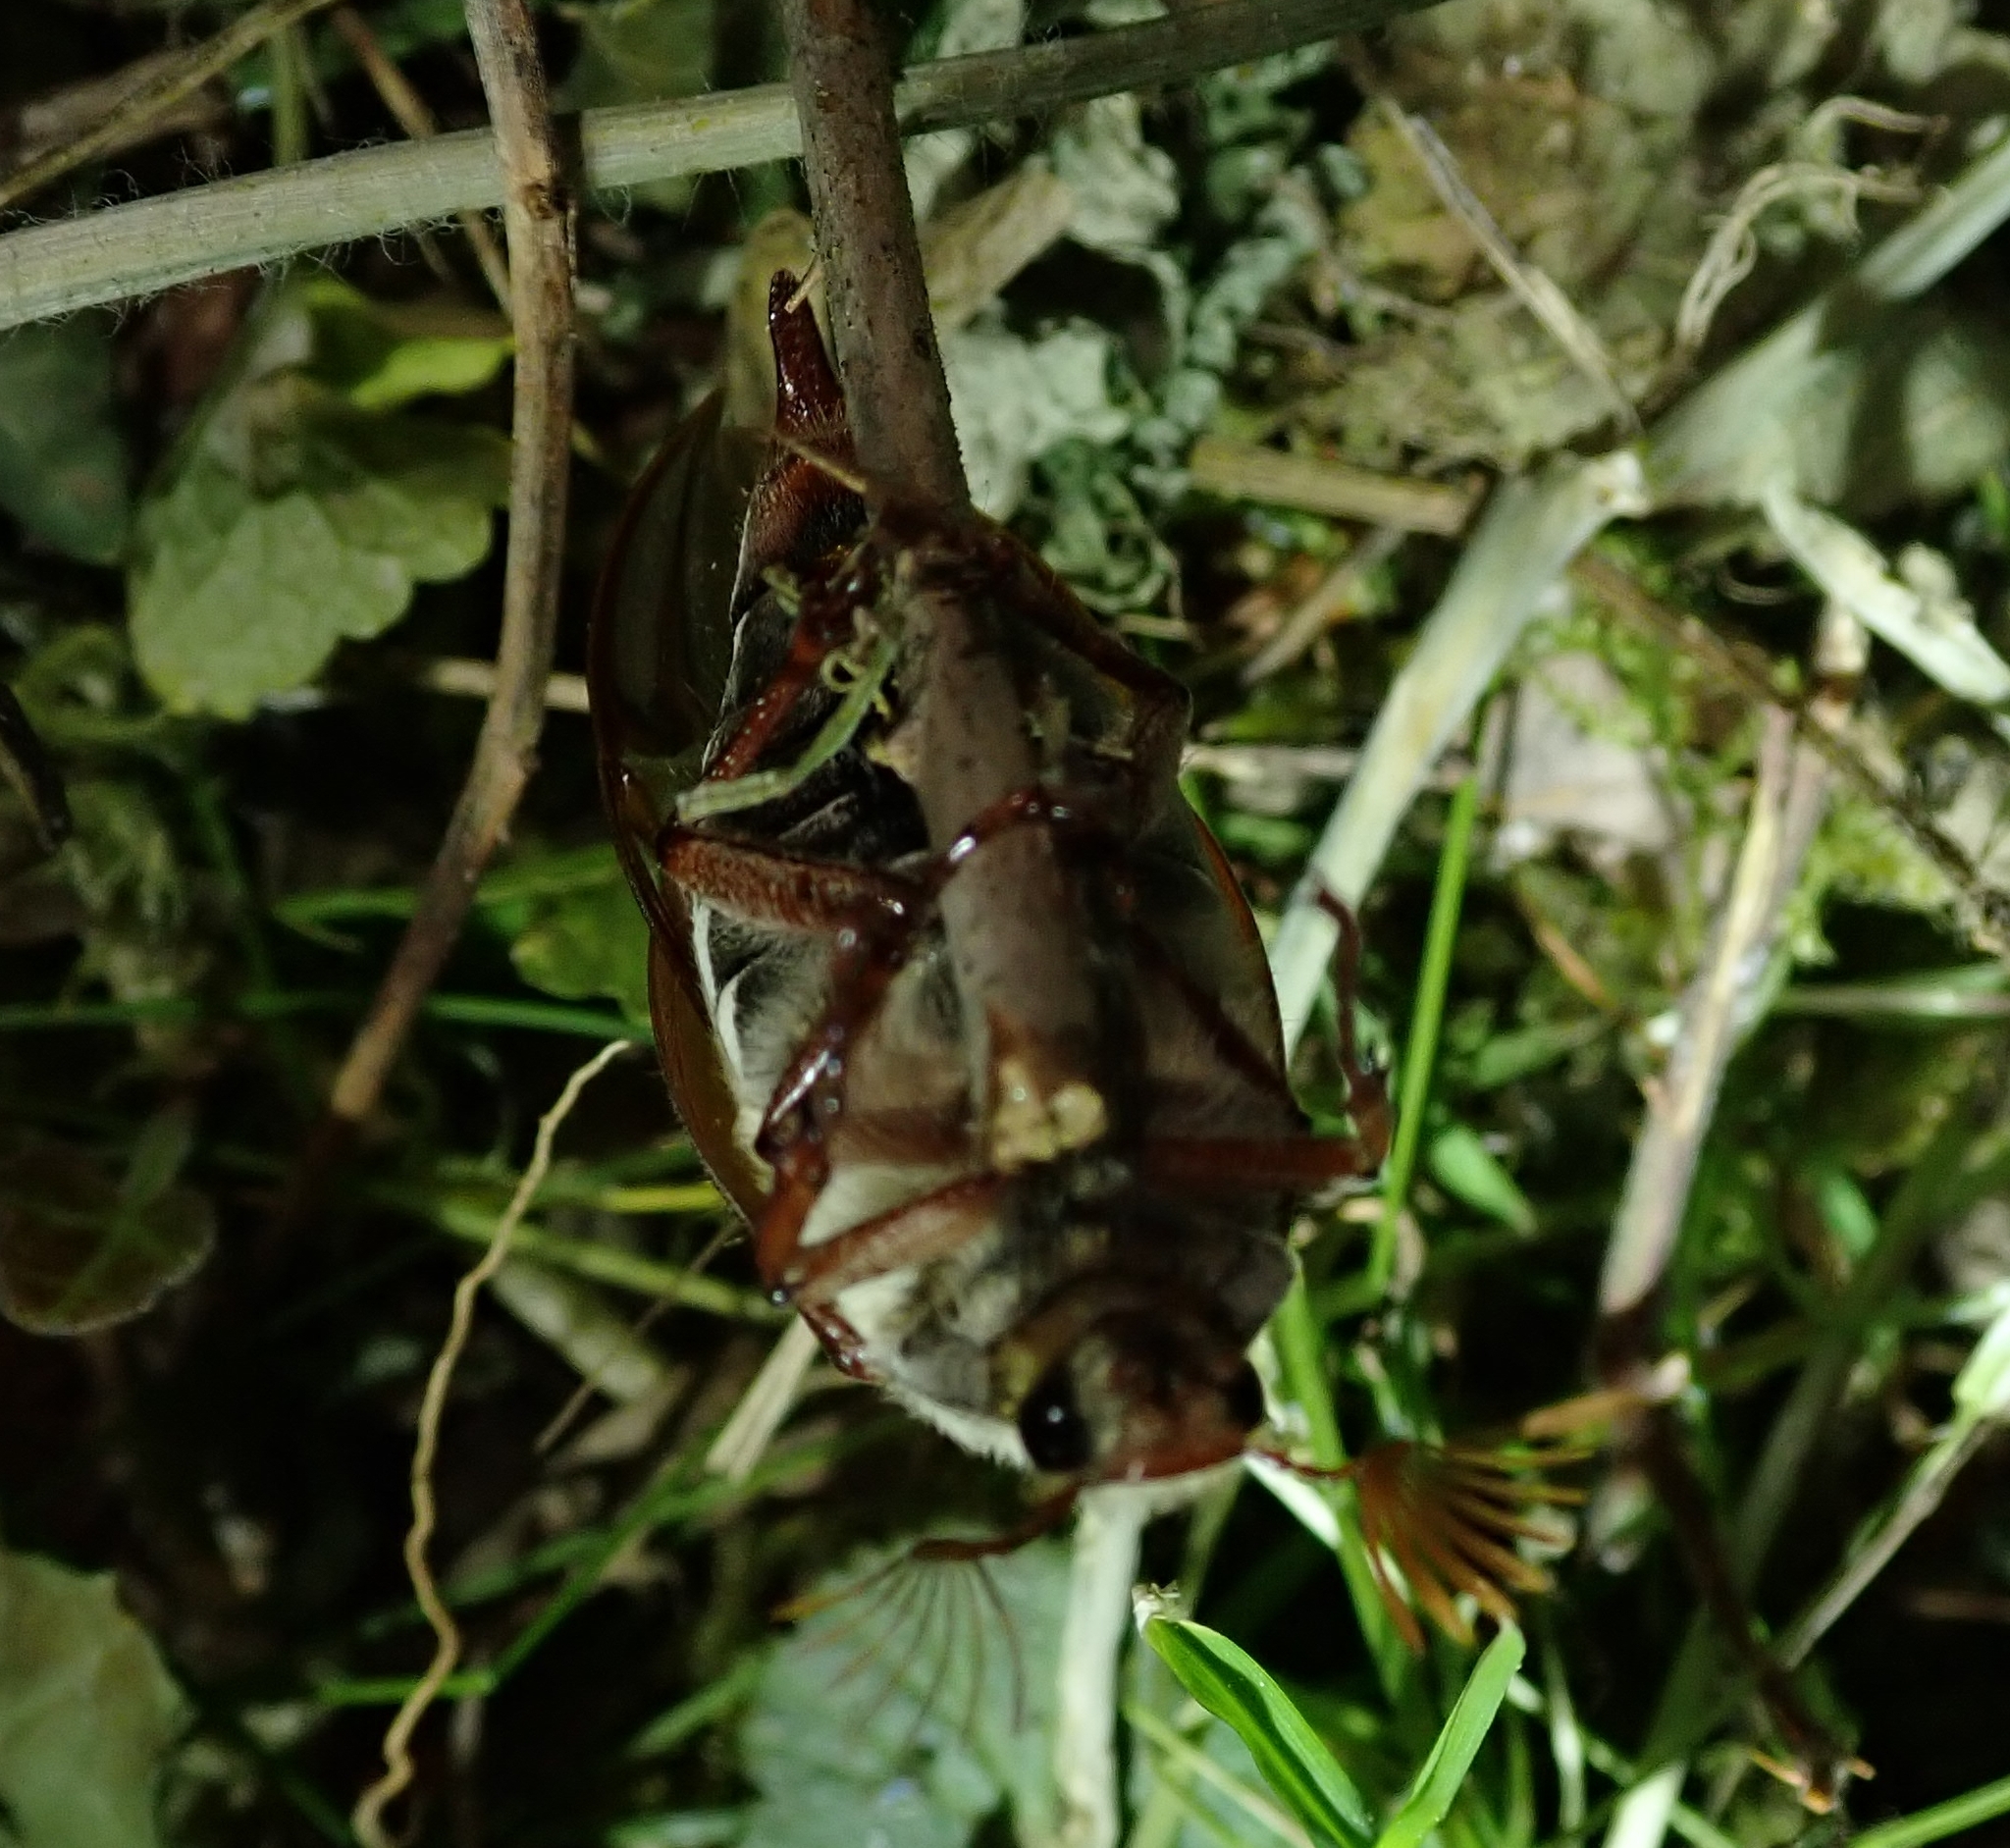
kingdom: Animalia
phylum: Arthropoda
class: Insecta
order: Coleoptera
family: Scarabaeidae
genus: Melolontha
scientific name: Melolontha melolontha
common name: Cockchafer maybeetle
